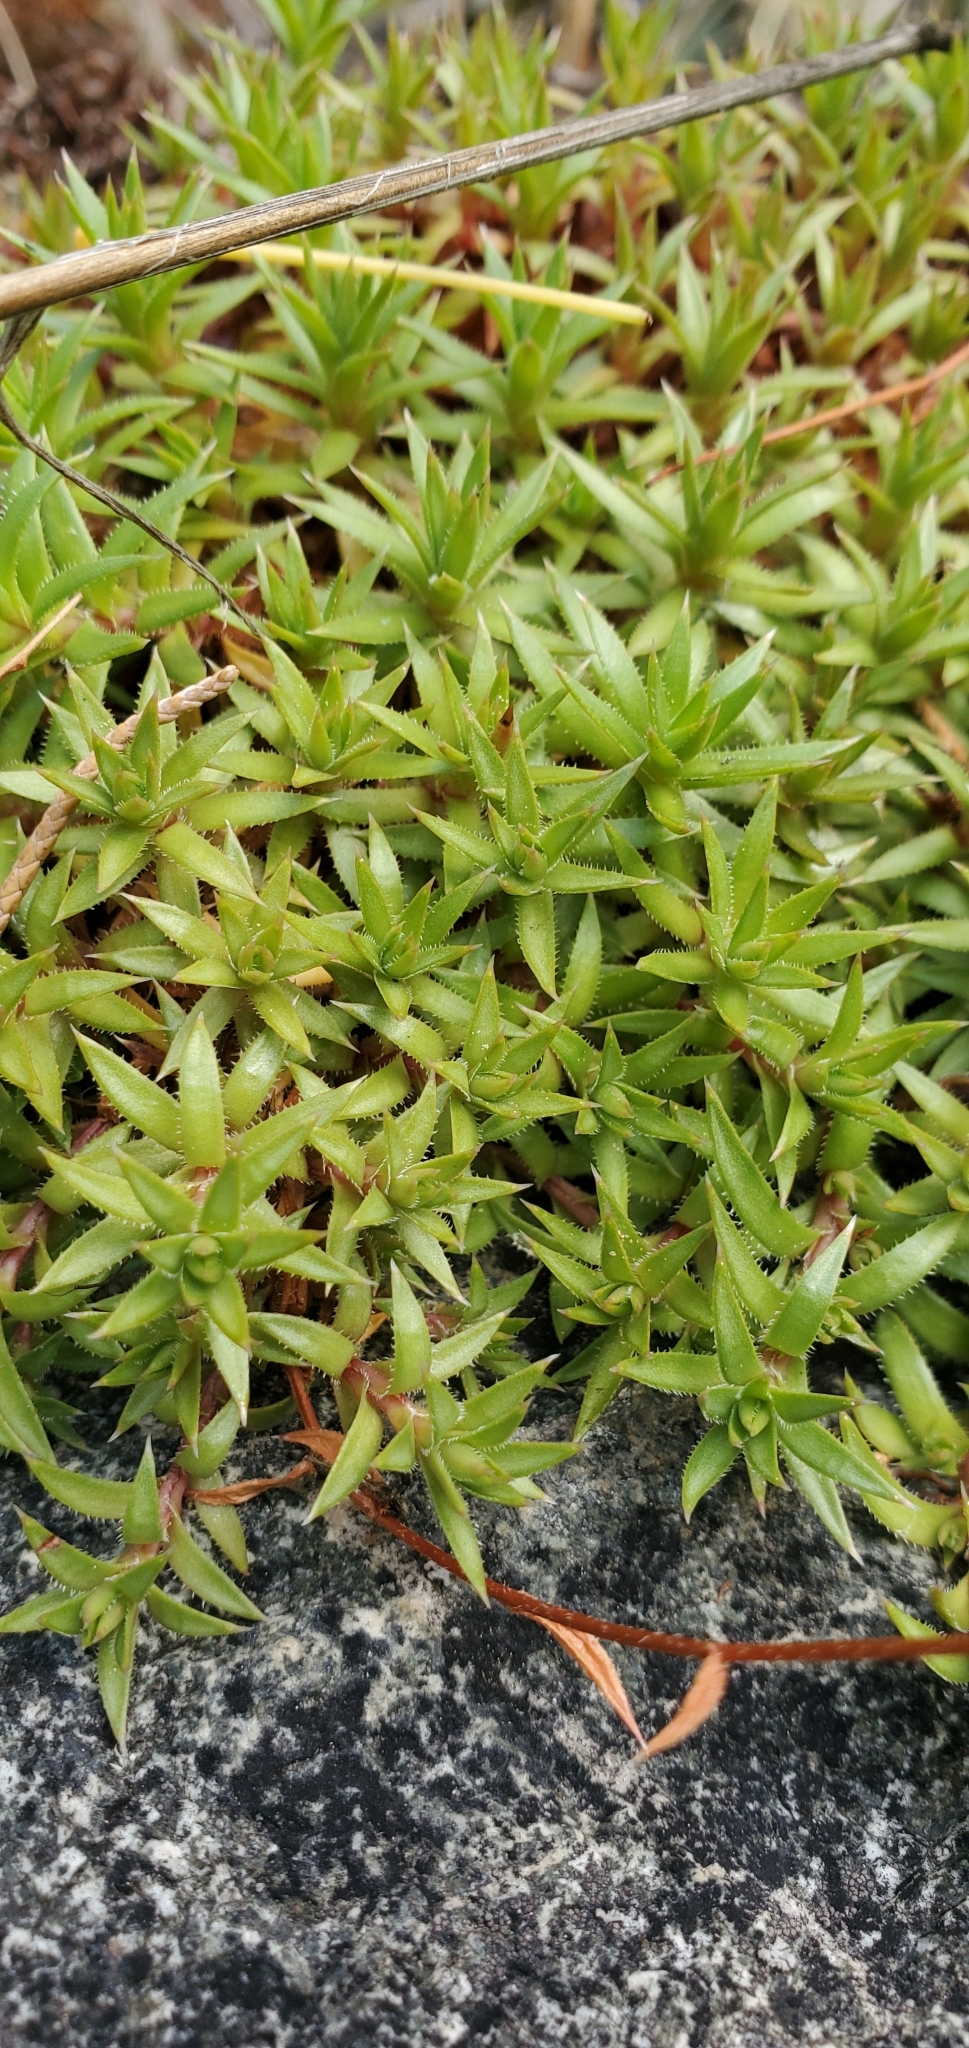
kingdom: Plantae
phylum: Tracheophyta
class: Magnoliopsida
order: Saxifragales
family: Saxifragaceae
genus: Saxifraga
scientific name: Saxifraga bronchialis
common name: Matted saxifrage
